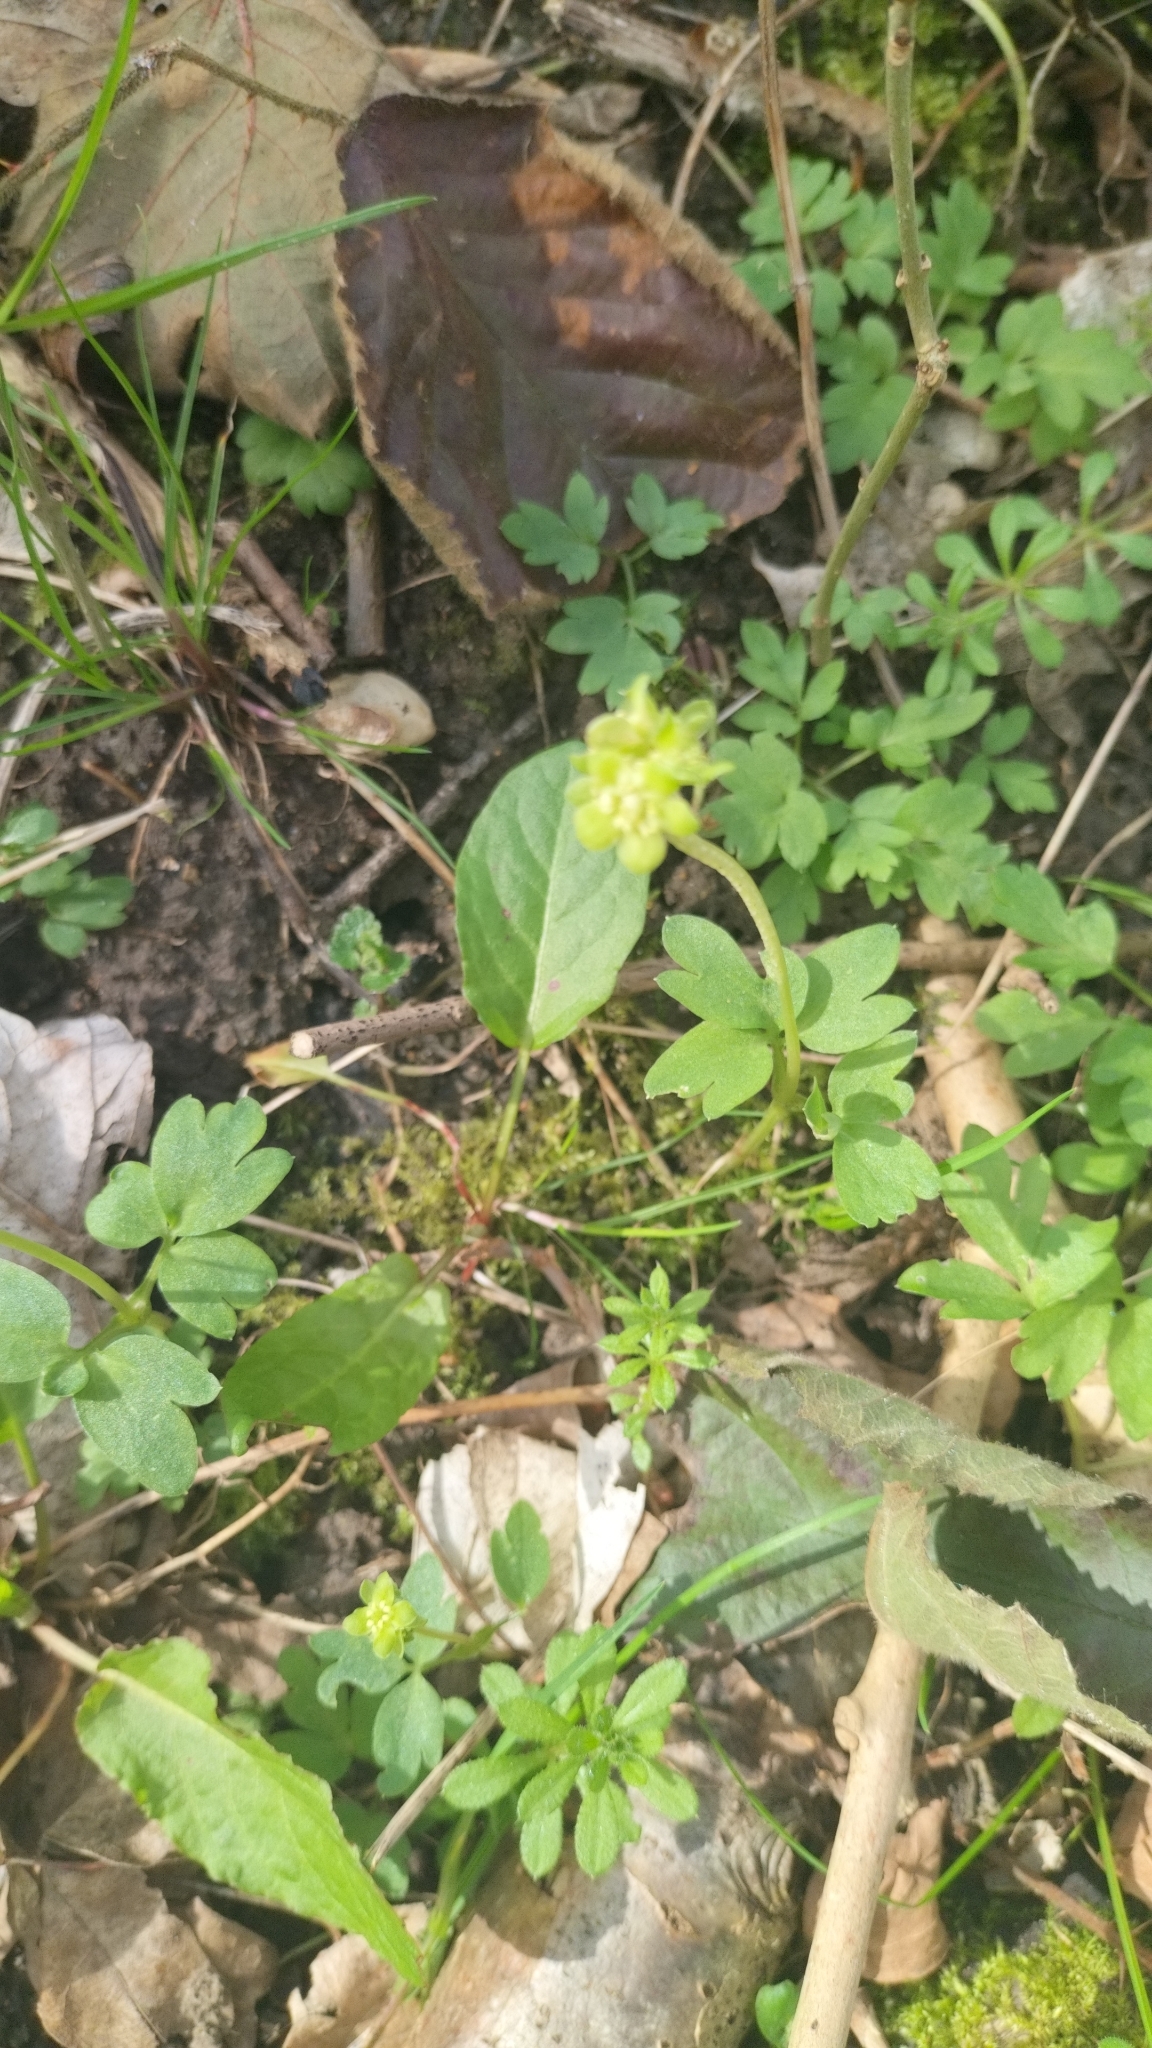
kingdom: Plantae
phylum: Tracheophyta
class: Magnoliopsida
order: Dipsacales
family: Viburnaceae
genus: Adoxa
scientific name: Adoxa moschatellina
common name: Moschatel
